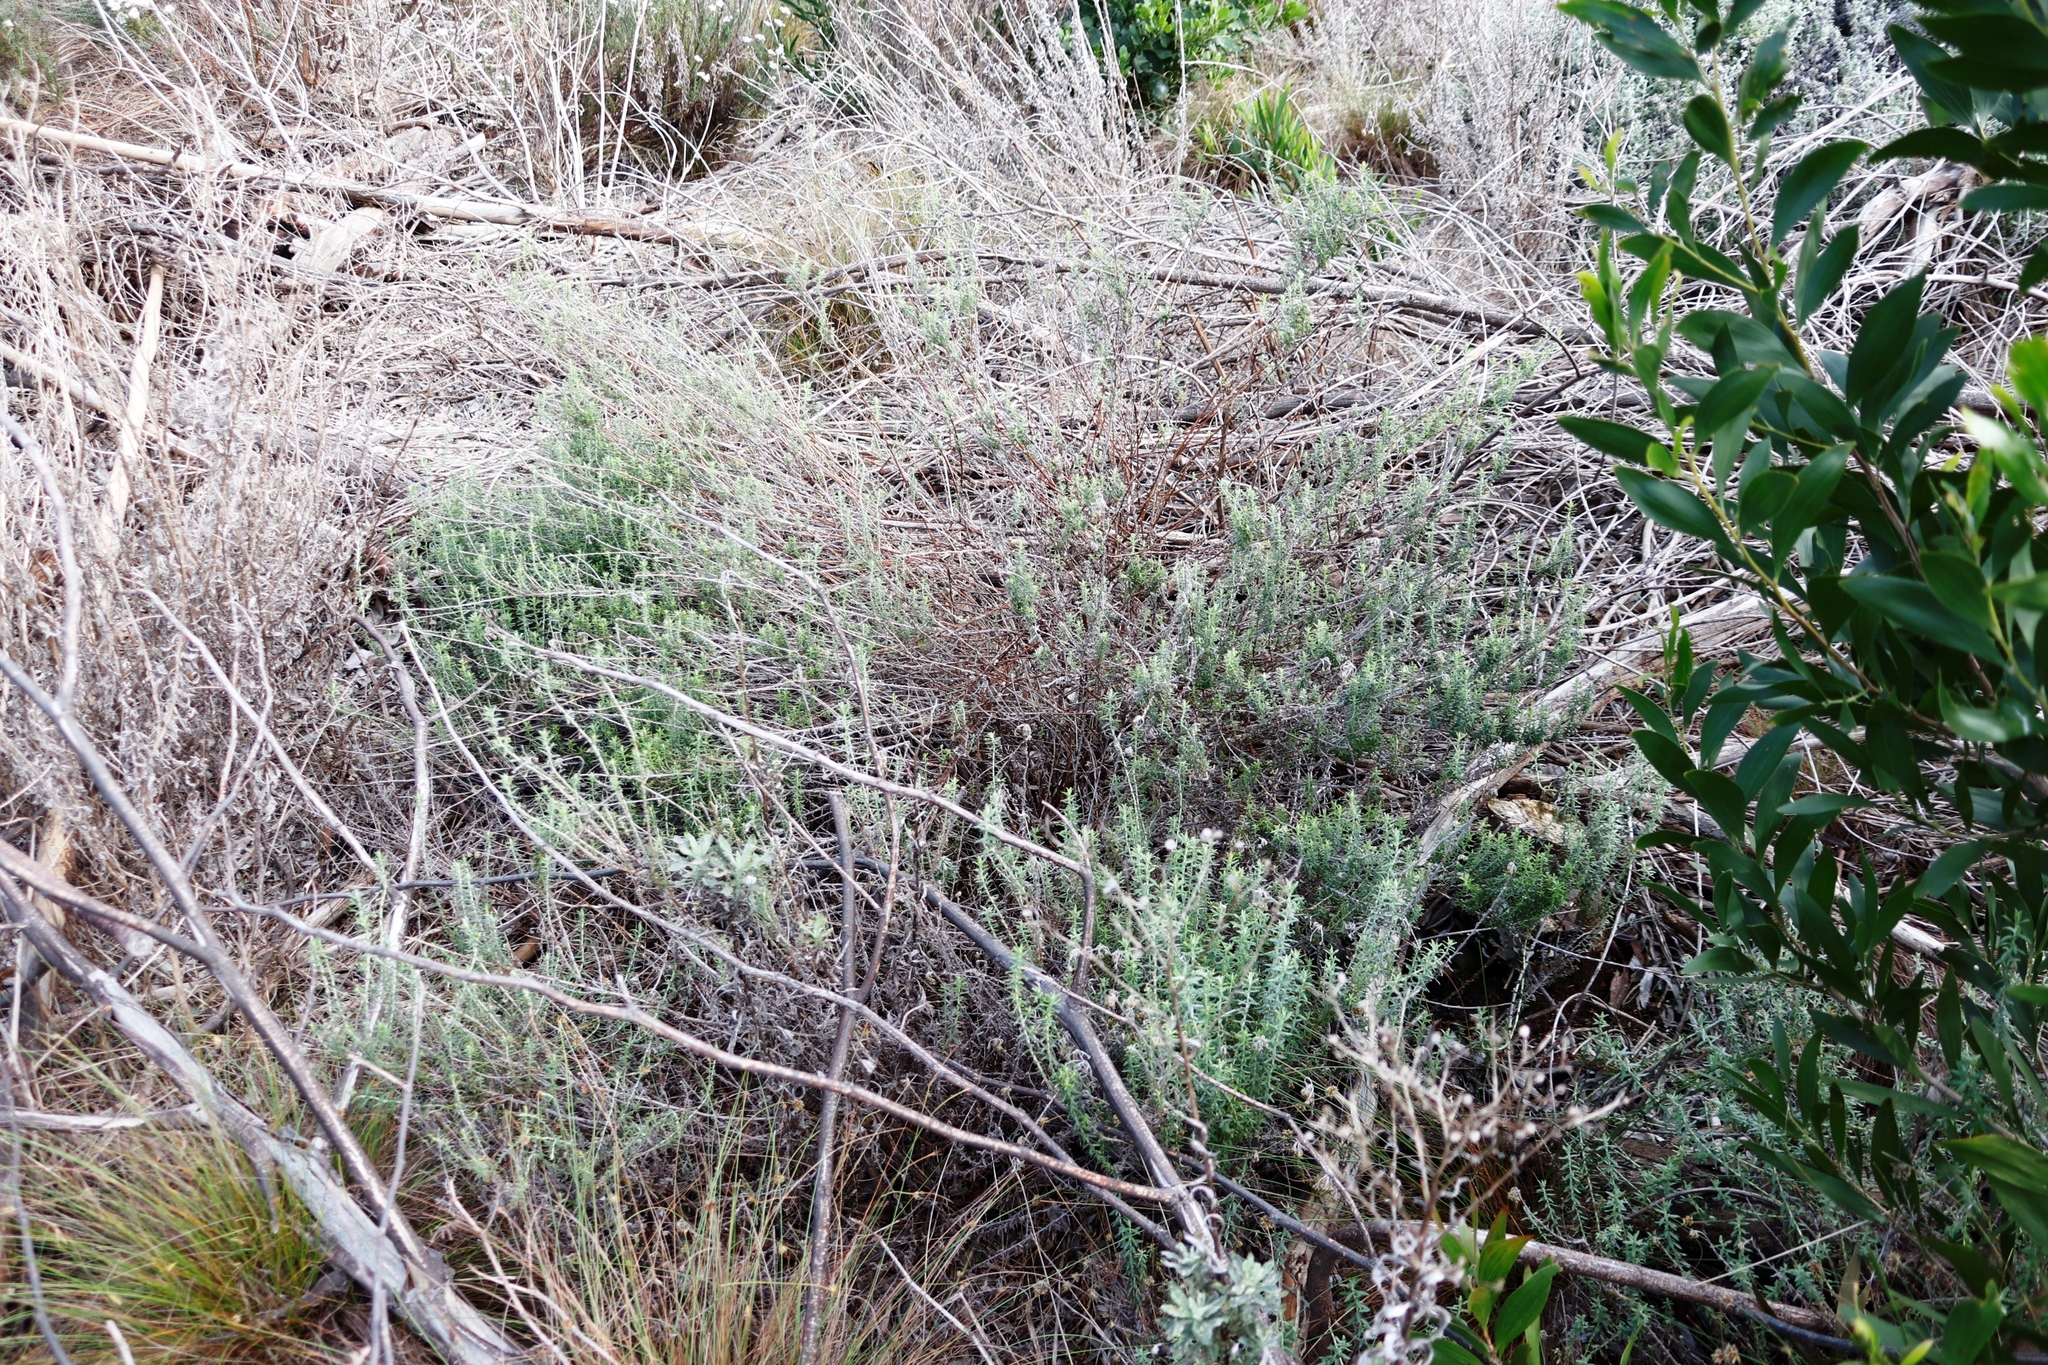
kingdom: Plantae
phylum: Tracheophyta
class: Magnoliopsida
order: Asterales
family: Asteraceae
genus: Seriphium
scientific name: Seriphium cinereum
